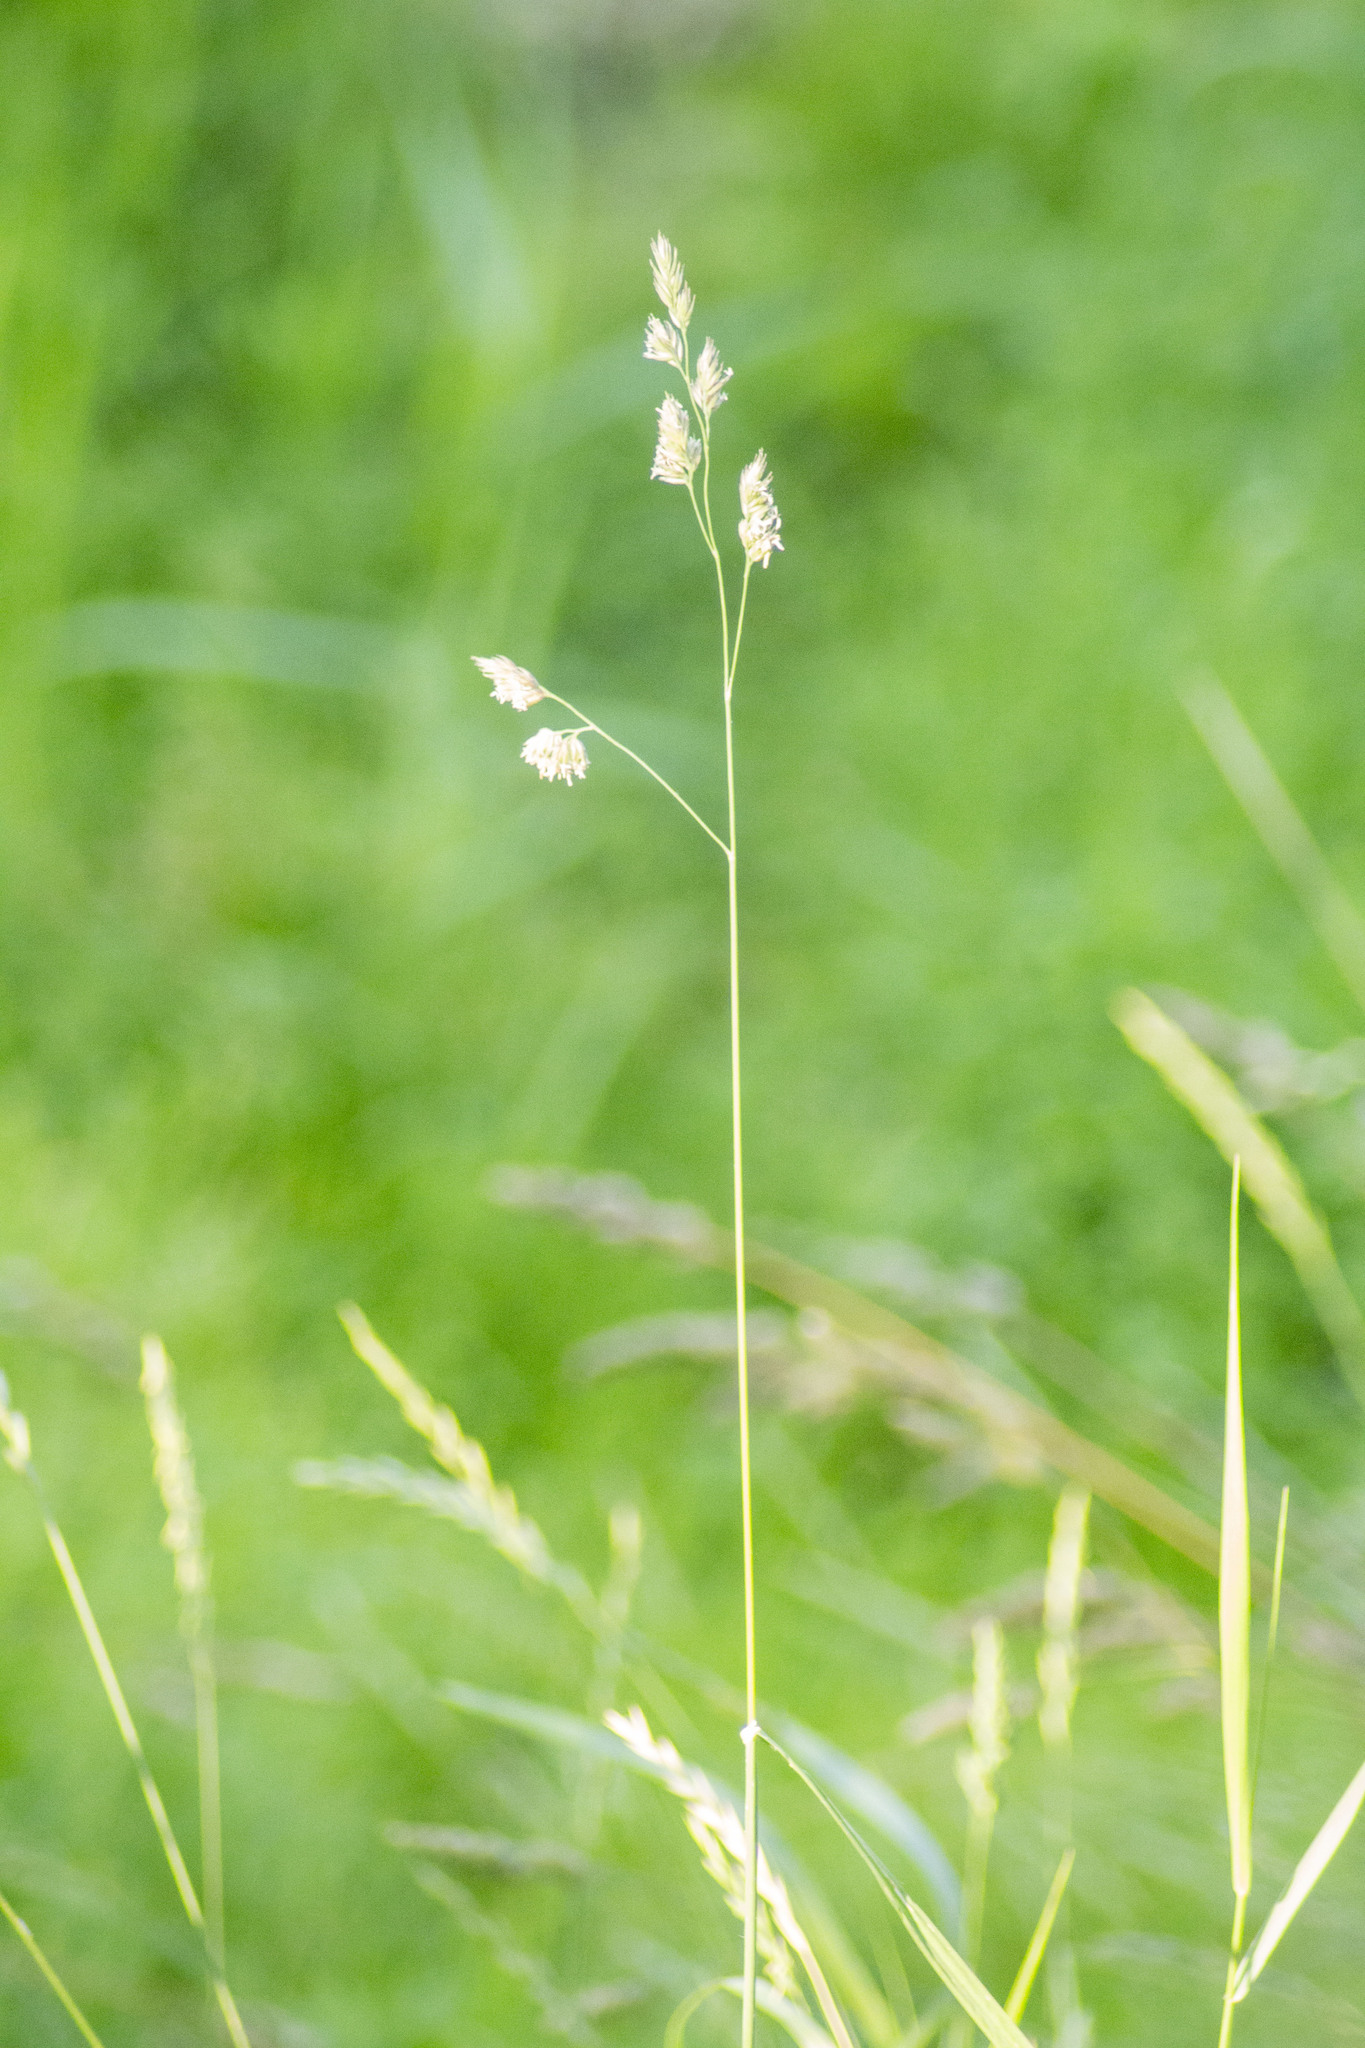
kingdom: Plantae
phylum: Tracheophyta
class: Liliopsida
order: Poales
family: Poaceae
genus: Dactylis
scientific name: Dactylis glomerata
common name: Orchardgrass
